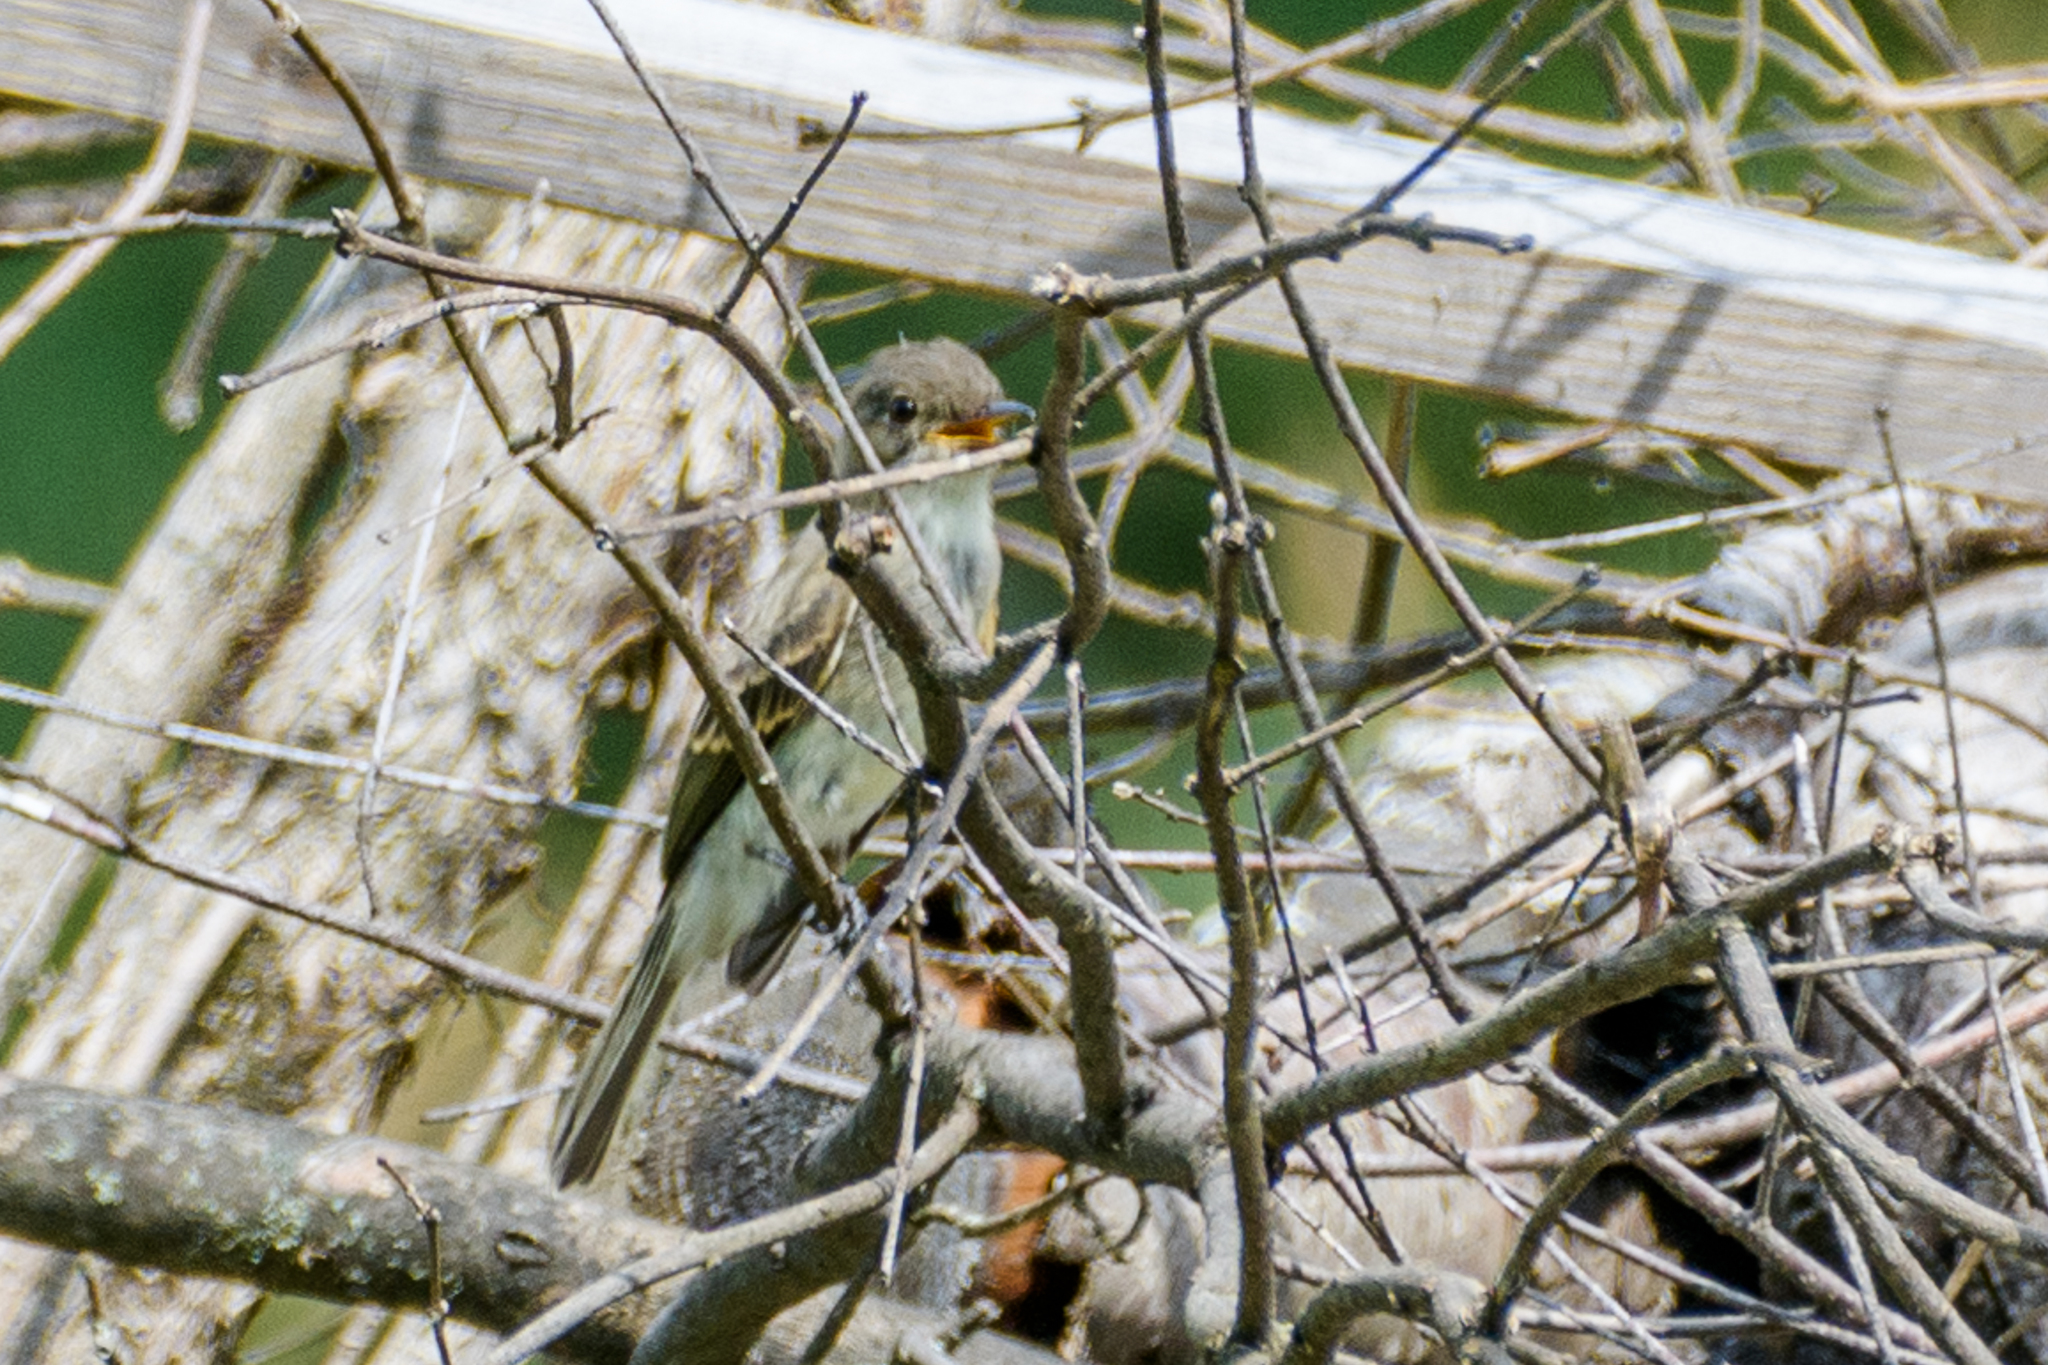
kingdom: Animalia
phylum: Chordata
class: Aves
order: Passeriformes
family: Tyrannidae
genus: Sayornis
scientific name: Sayornis phoebe
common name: Eastern phoebe
